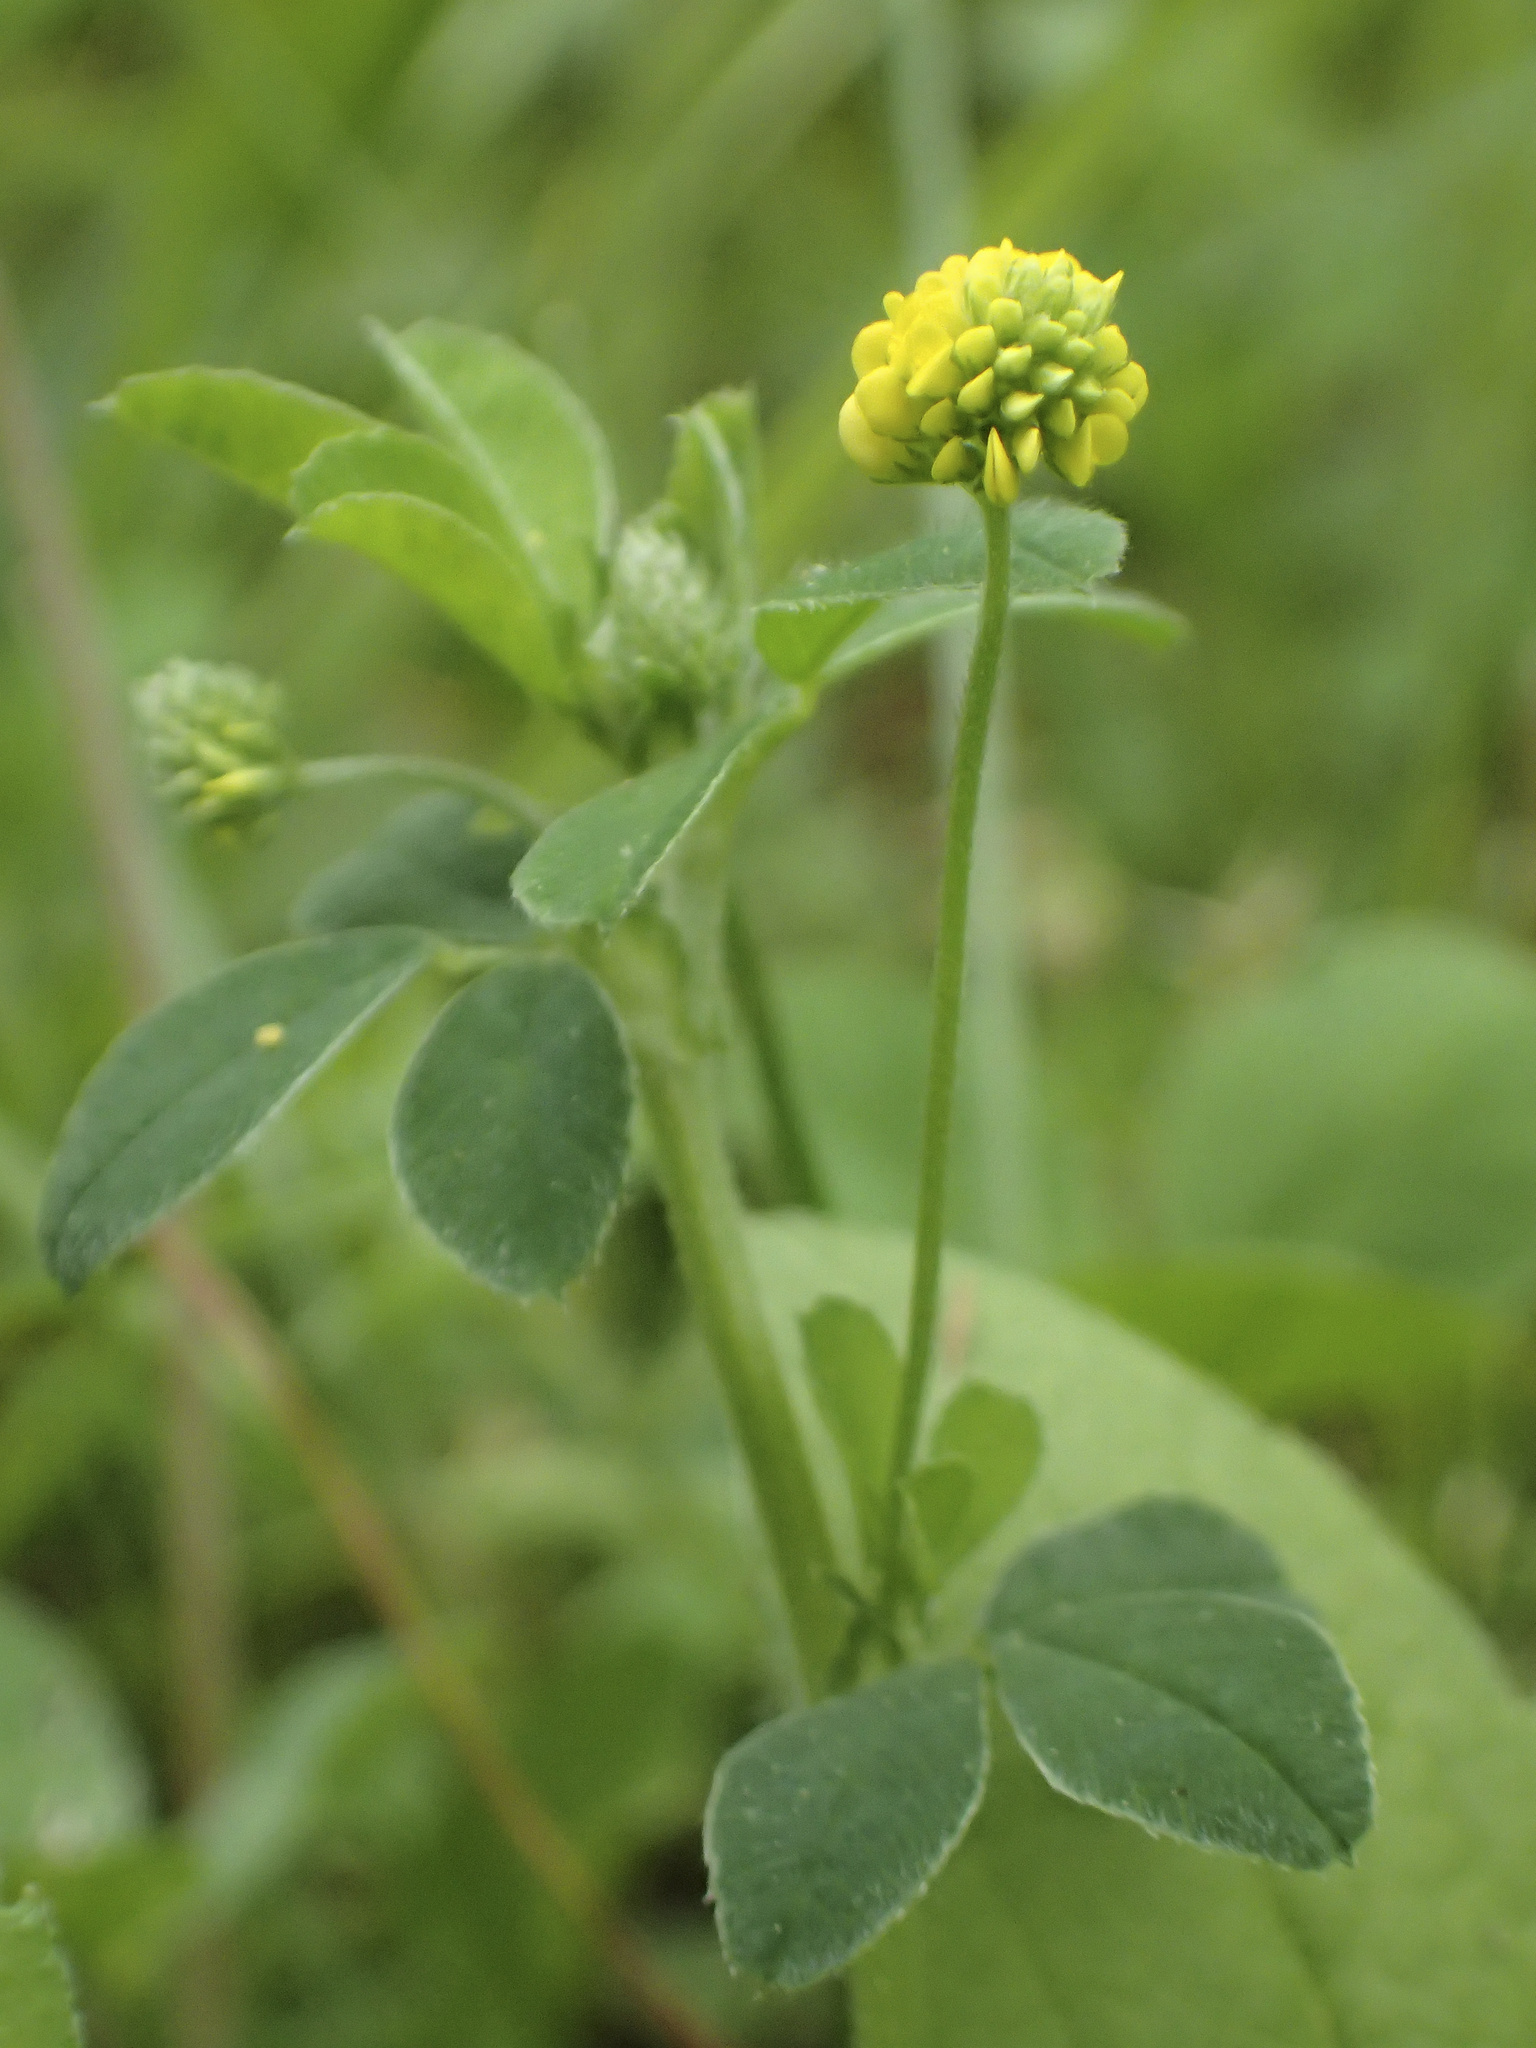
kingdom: Plantae
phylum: Tracheophyta
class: Magnoliopsida
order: Fabales
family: Fabaceae
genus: Medicago
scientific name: Medicago lupulina
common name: Black medick
